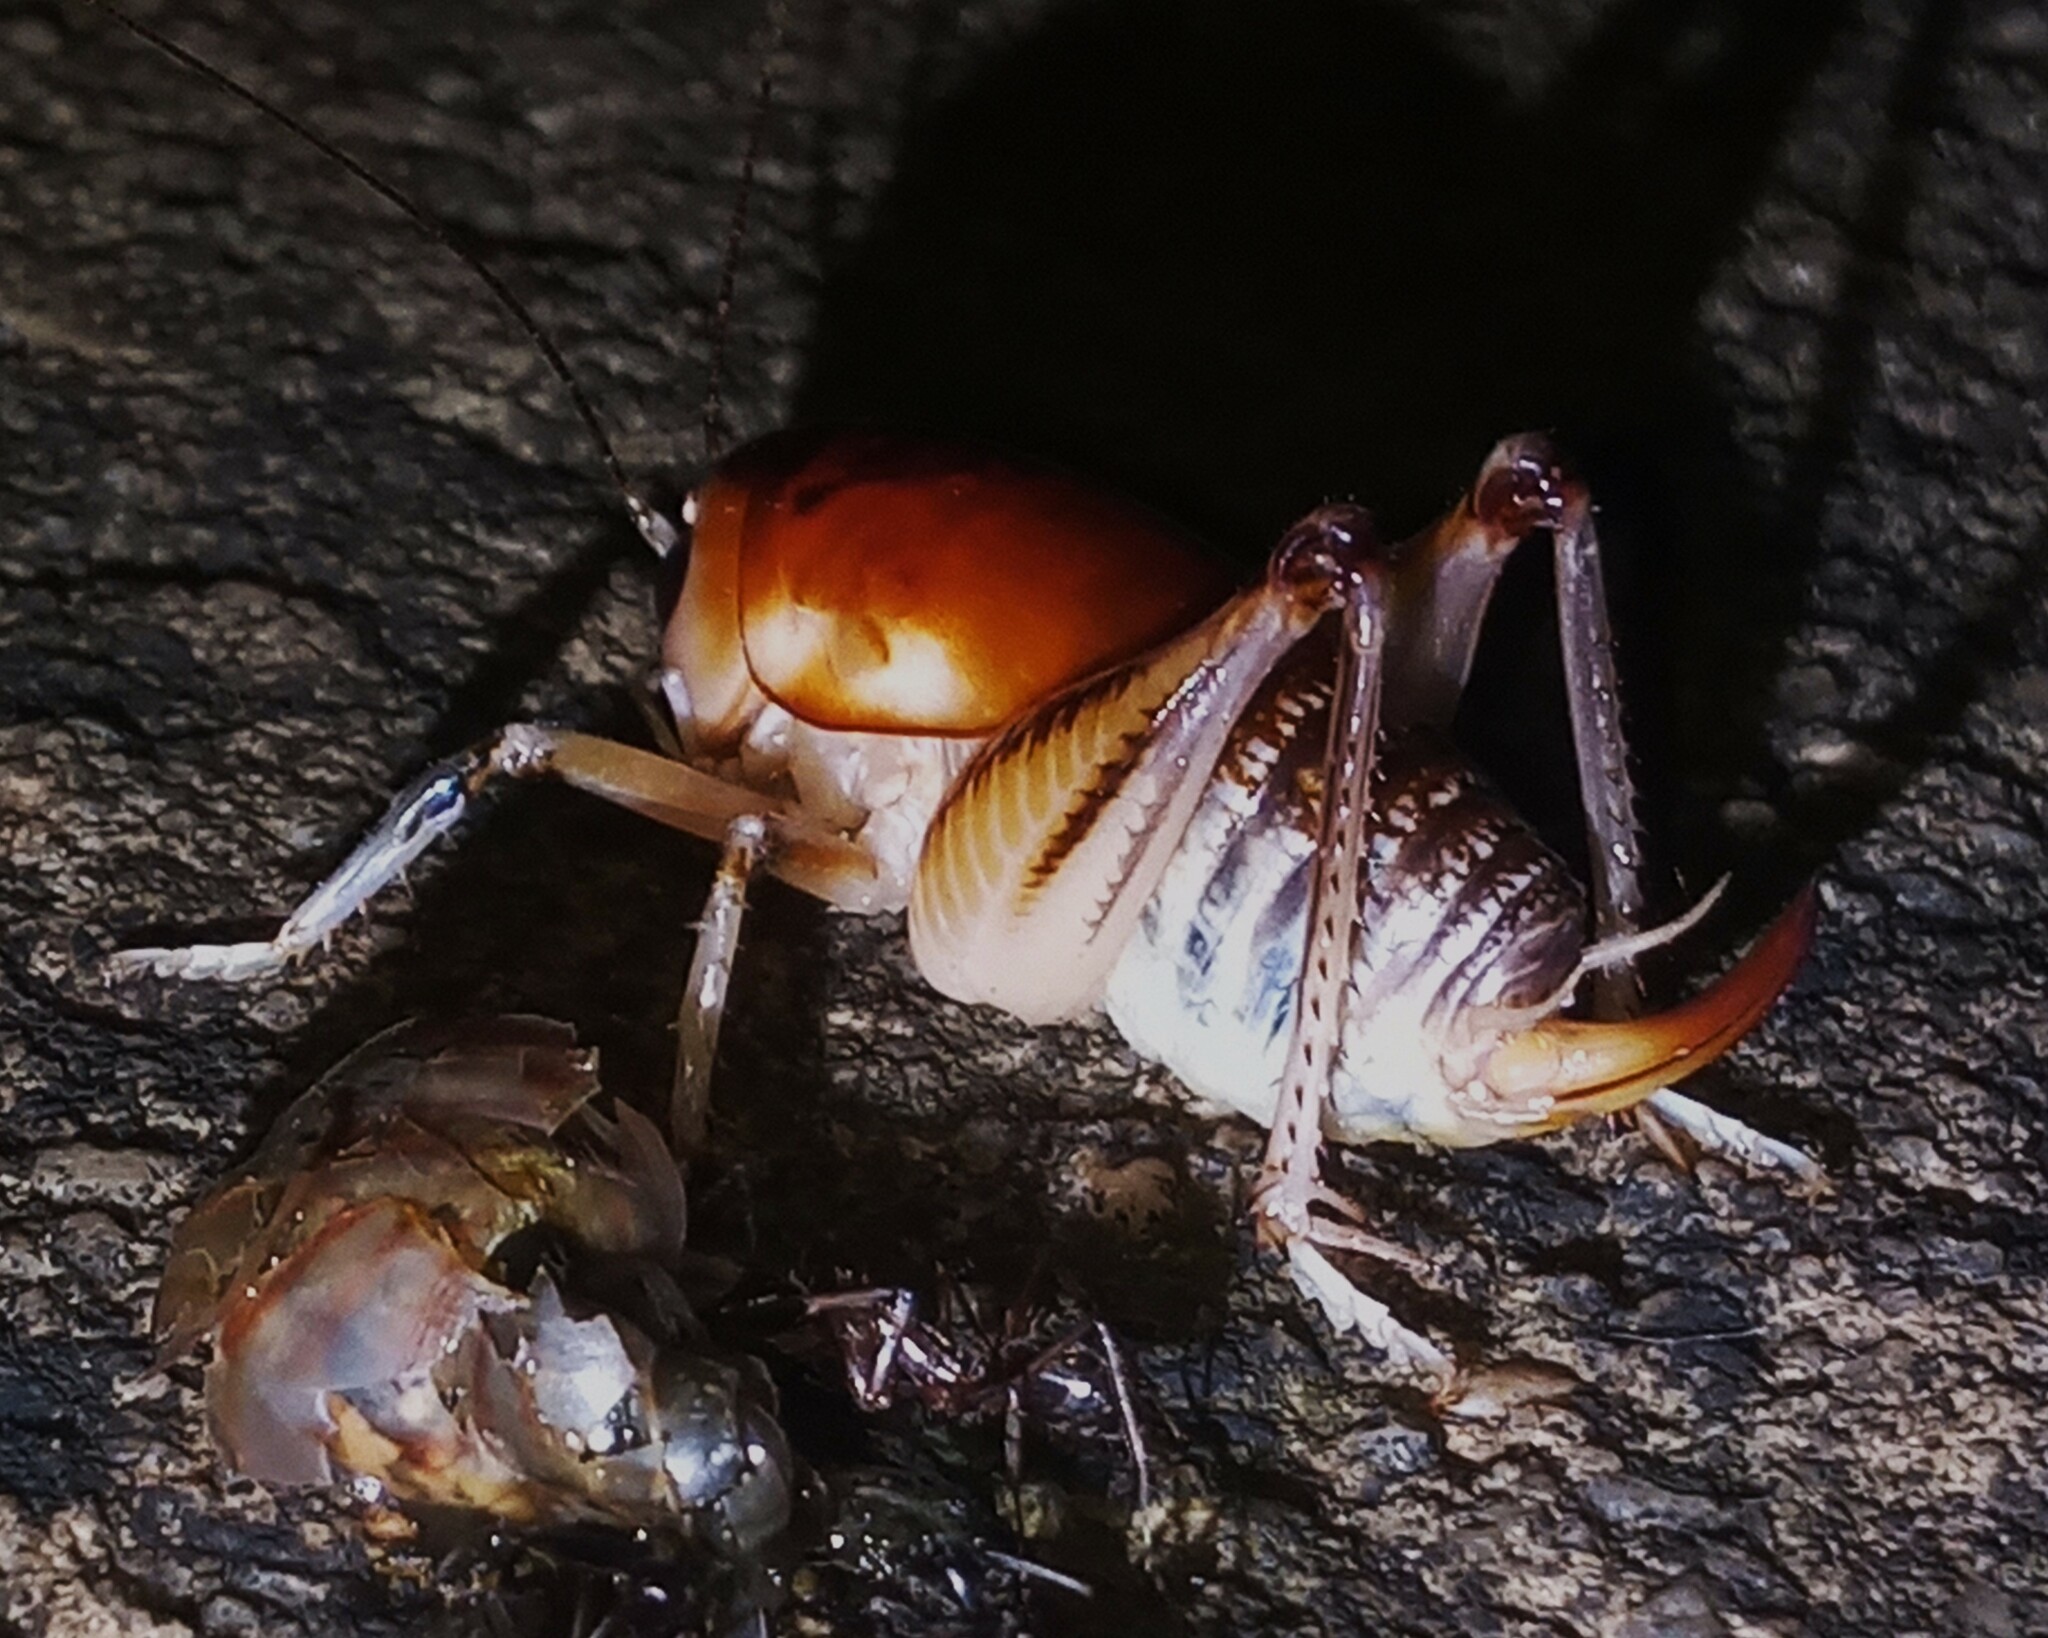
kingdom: Animalia
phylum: Arthropoda
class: Insecta
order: Orthoptera
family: Anostostomatidae
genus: Apotetamenus
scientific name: Apotetamenus clipeatus
